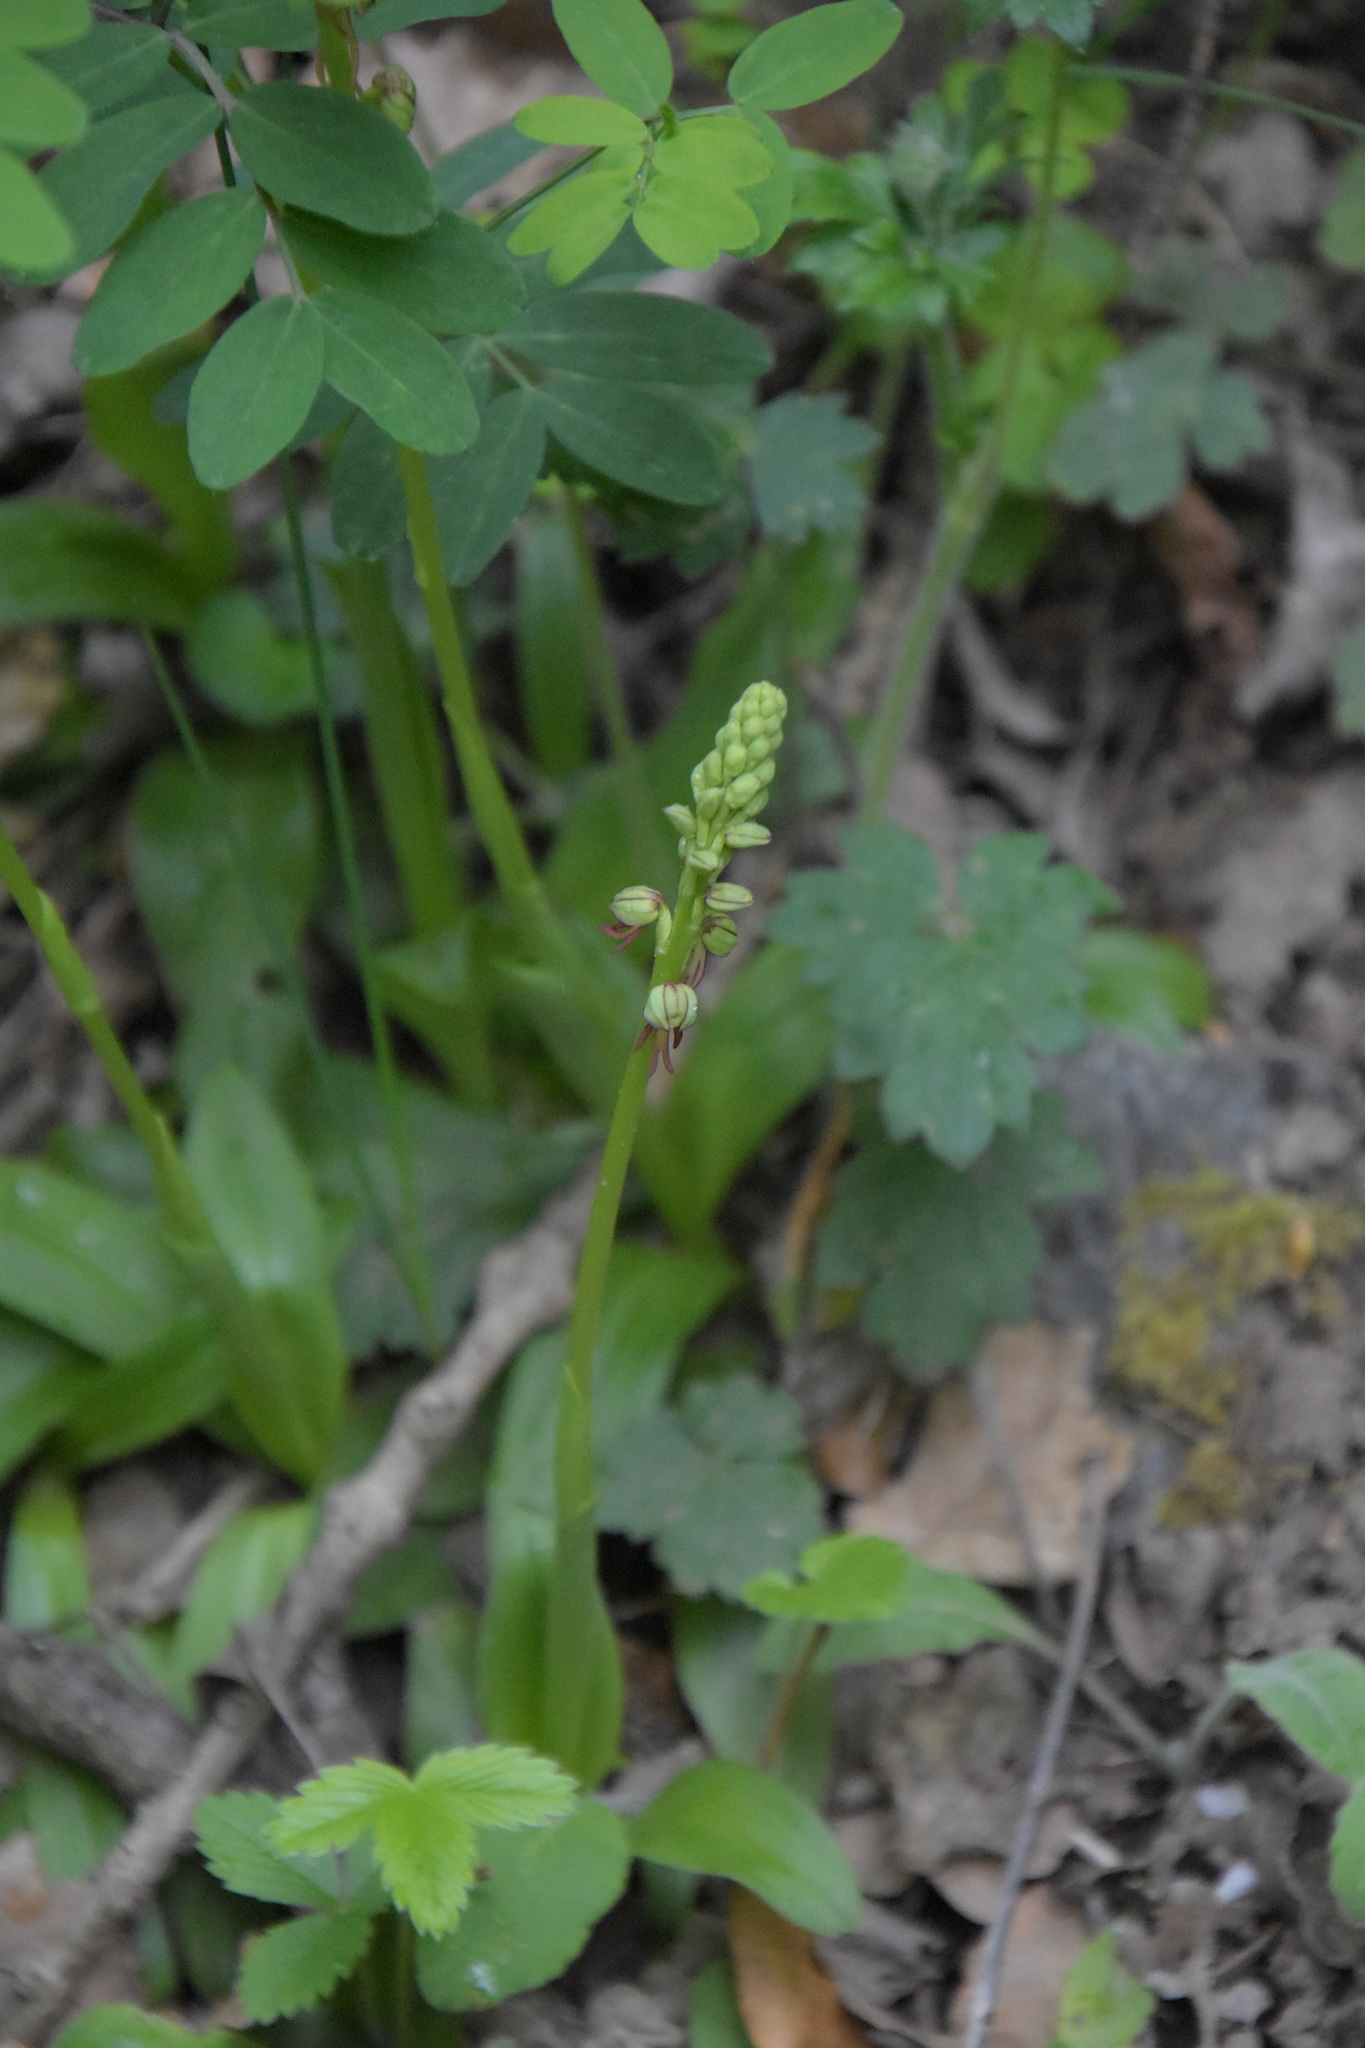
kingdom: Plantae
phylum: Tracheophyta
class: Liliopsida
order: Asparagales
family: Orchidaceae
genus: Orchis
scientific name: Orchis anthropophora
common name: Man orchid
